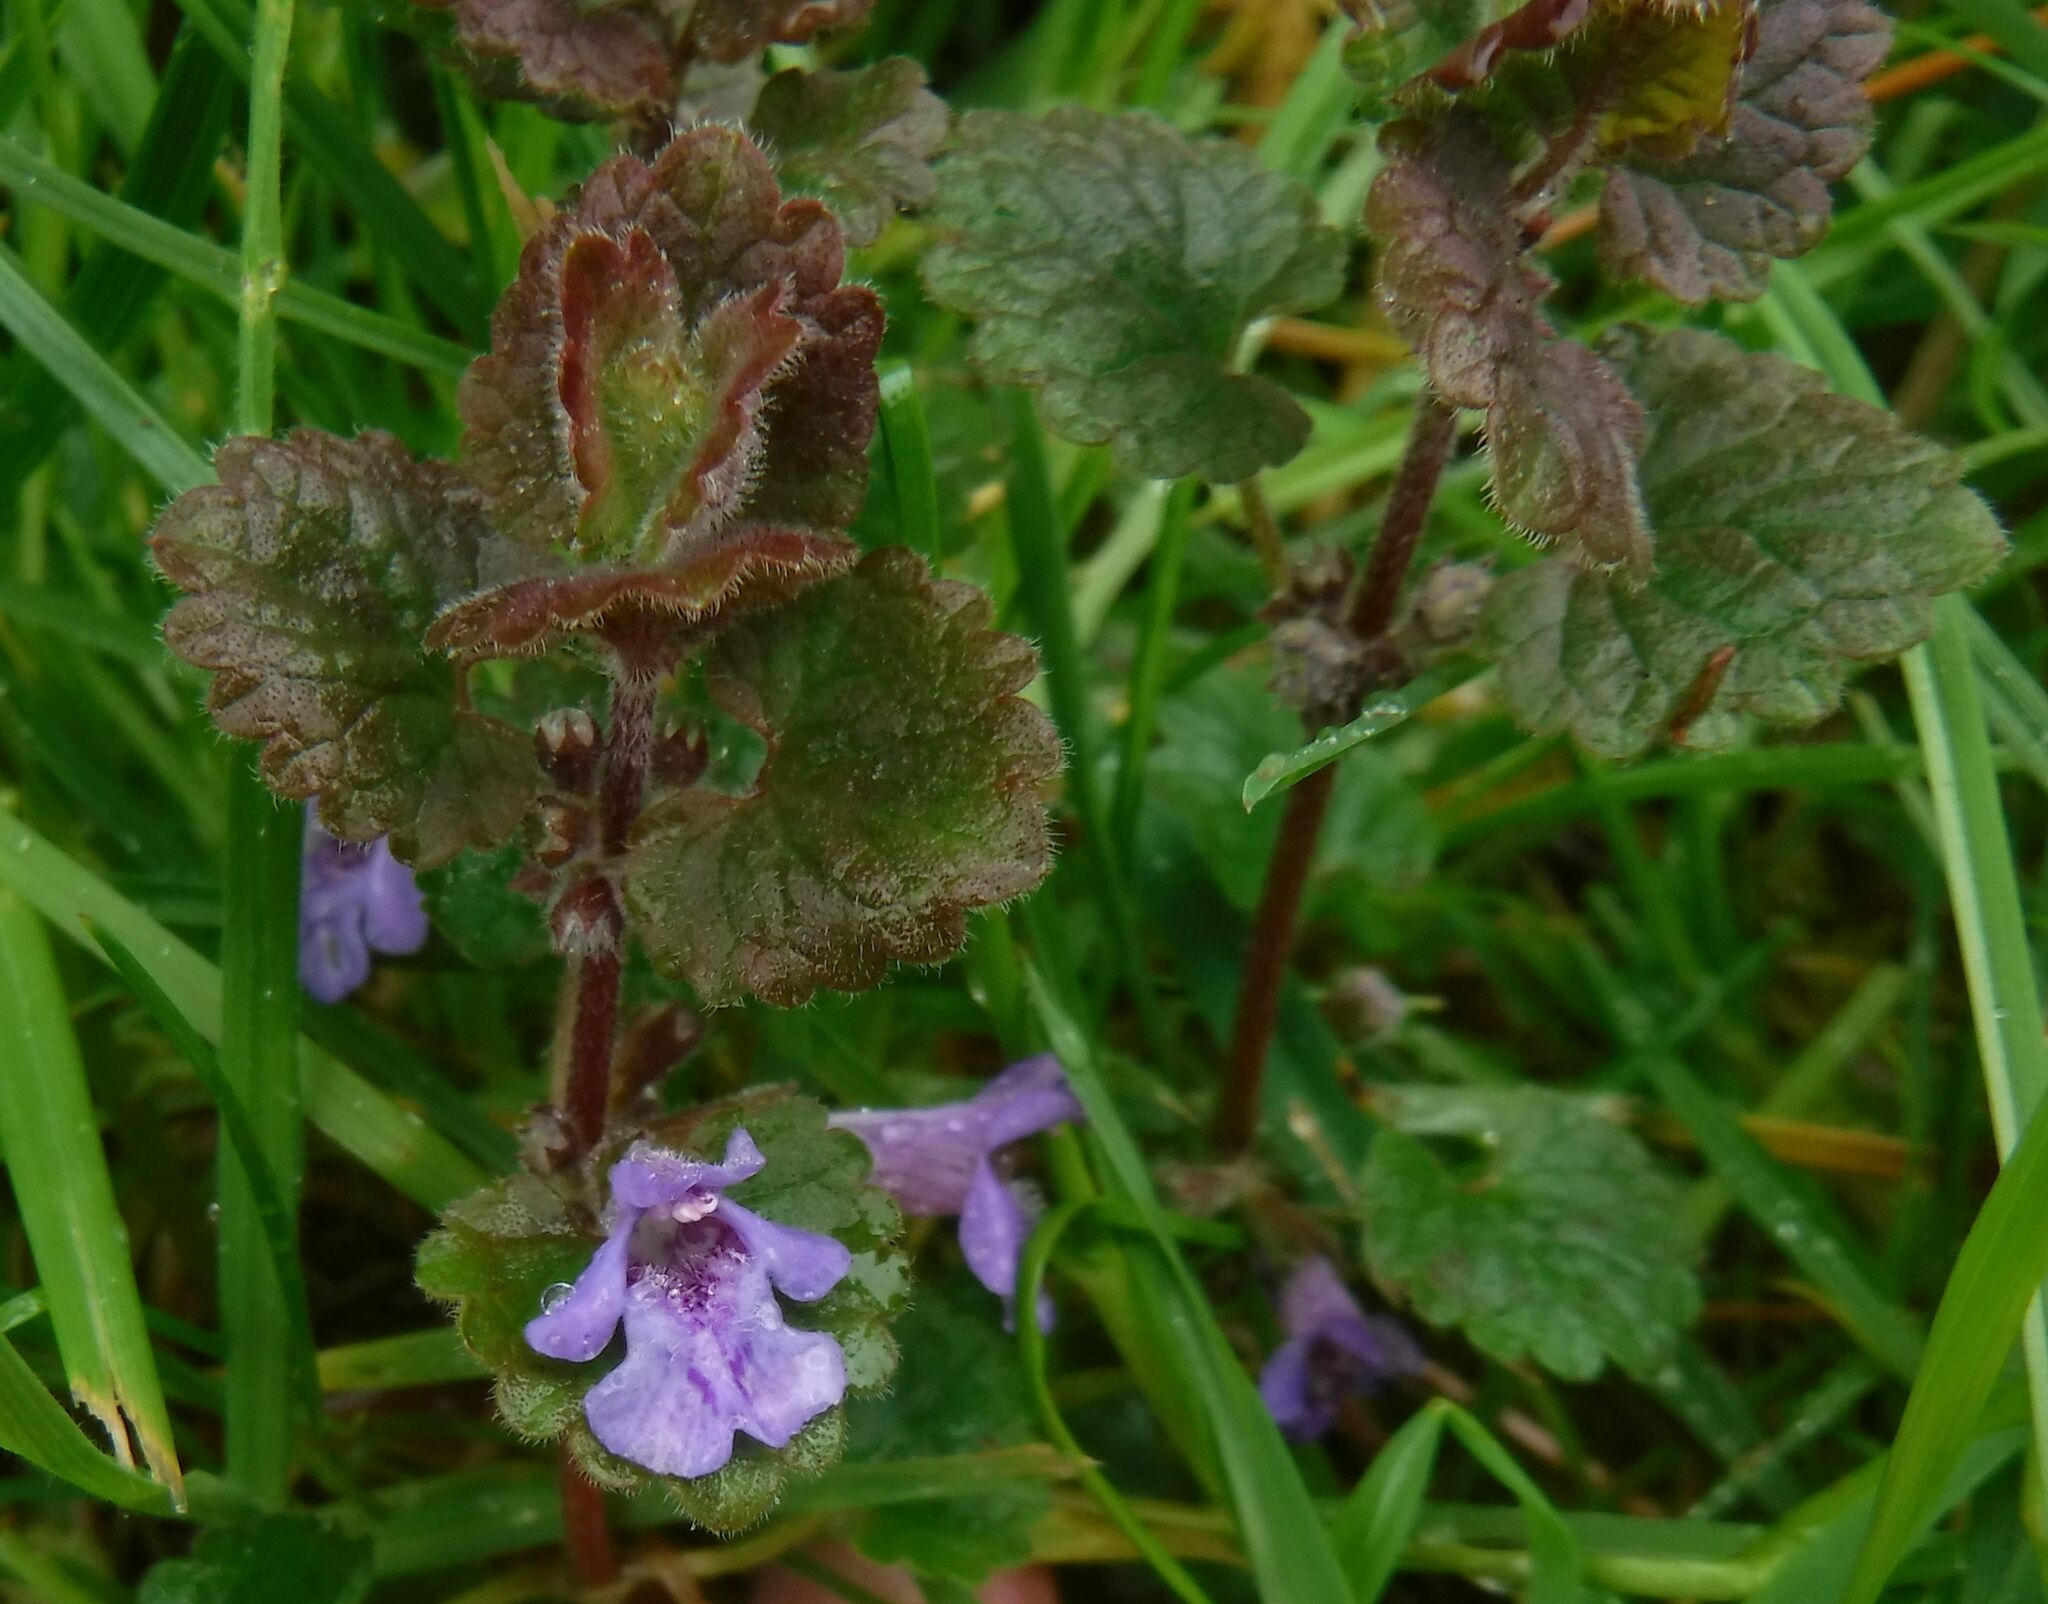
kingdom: Plantae
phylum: Tracheophyta
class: Magnoliopsida
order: Lamiales
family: Lamiaceae
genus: Glechoma
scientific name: Glechoma hederacea
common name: Ground ivy
